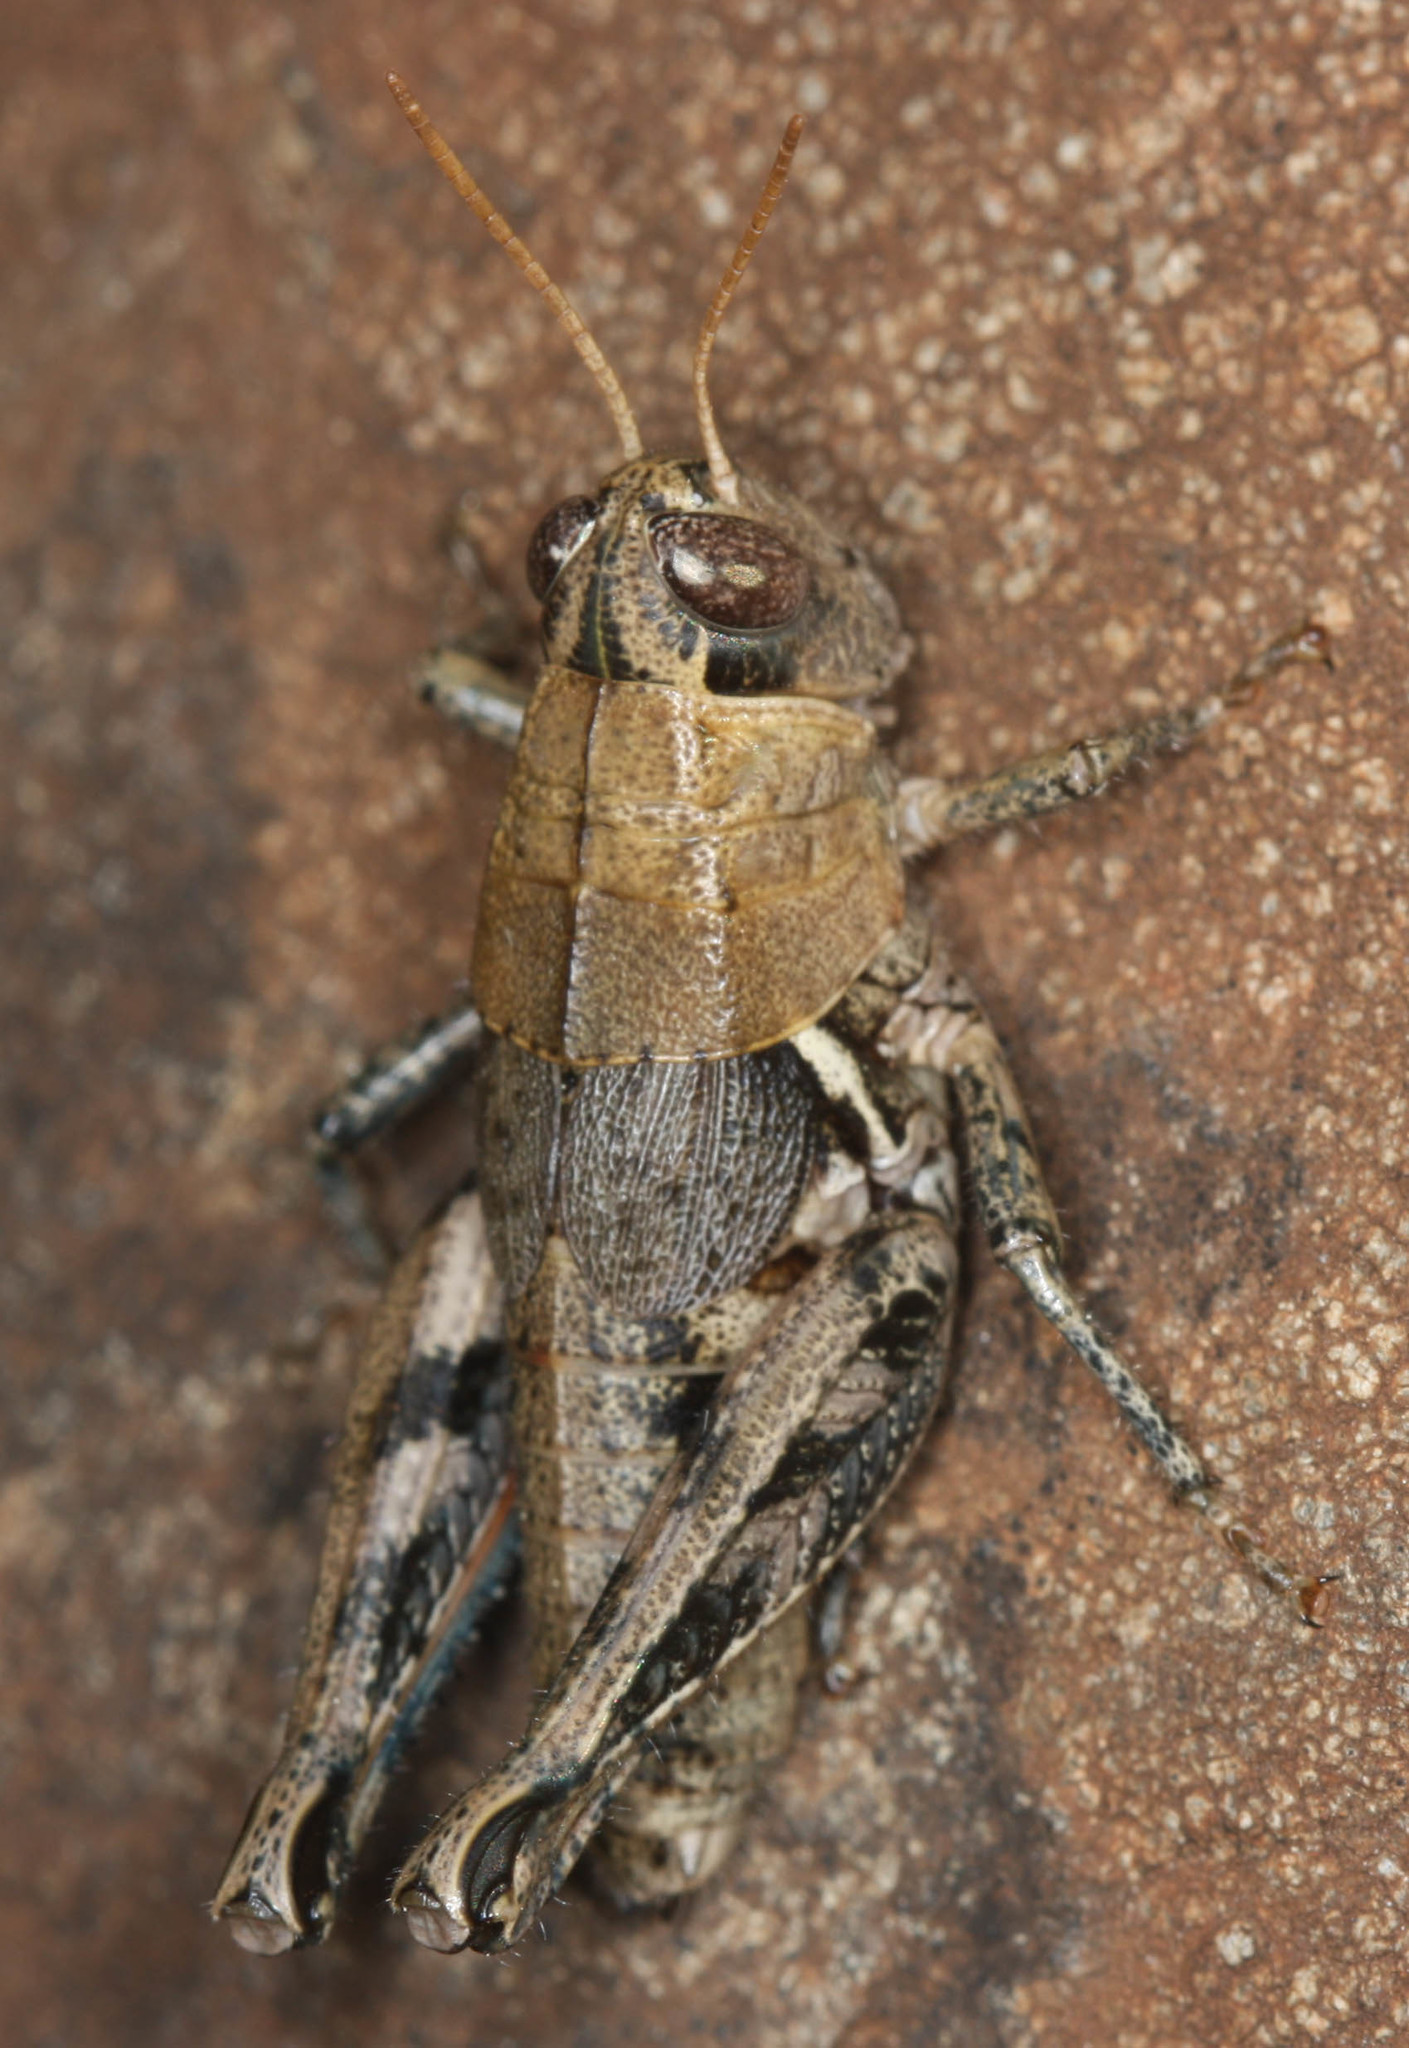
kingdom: Animalia
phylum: Arthropoda
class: Insecta
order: Orthoptera
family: Acrididae
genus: Oedaleonotus
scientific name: Oedaleonotus borckii
